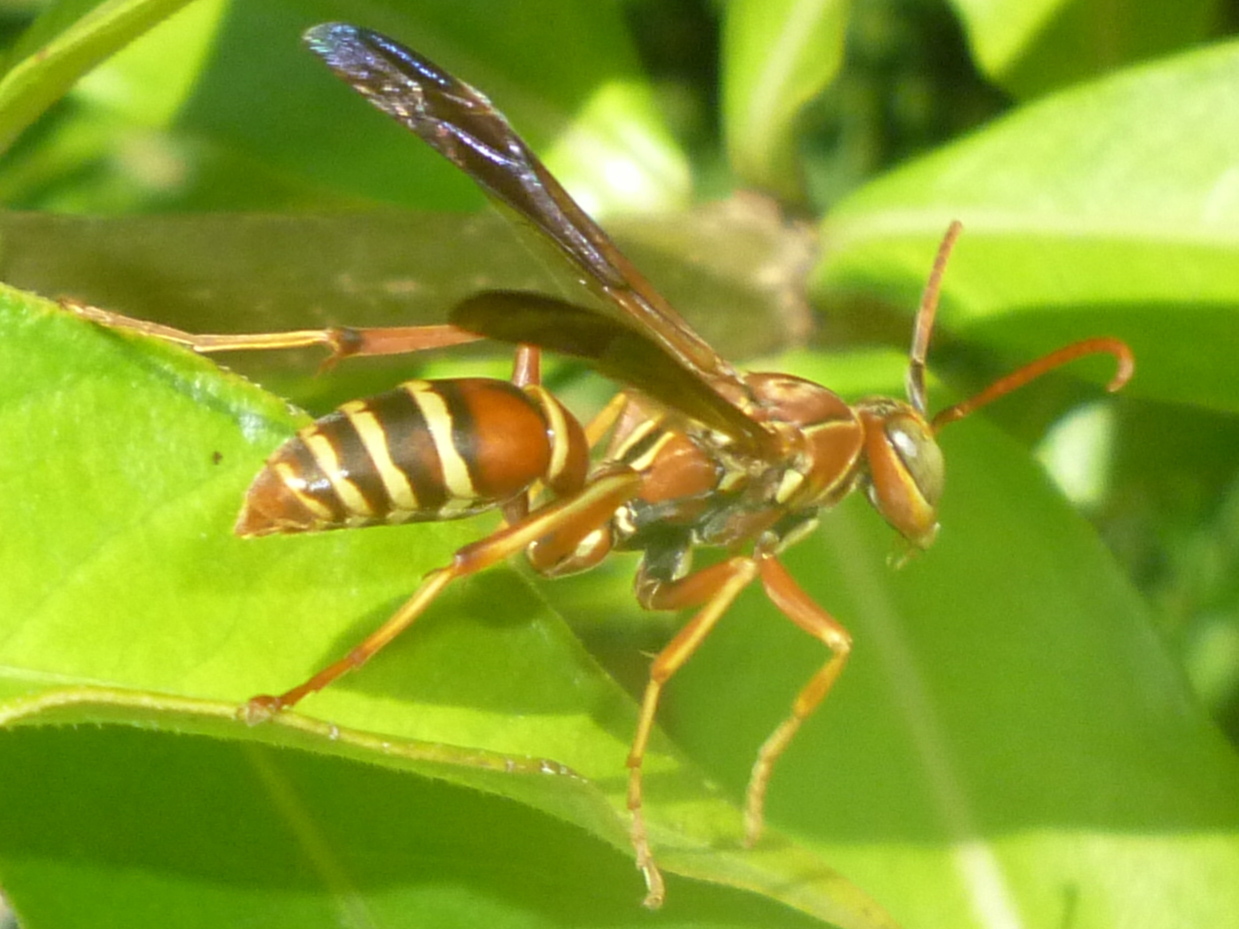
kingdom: Animalia
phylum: Arthropoda
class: Insecta
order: Hymenoptera
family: Eumenidae
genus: Polistes
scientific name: Polistes bellicosus
